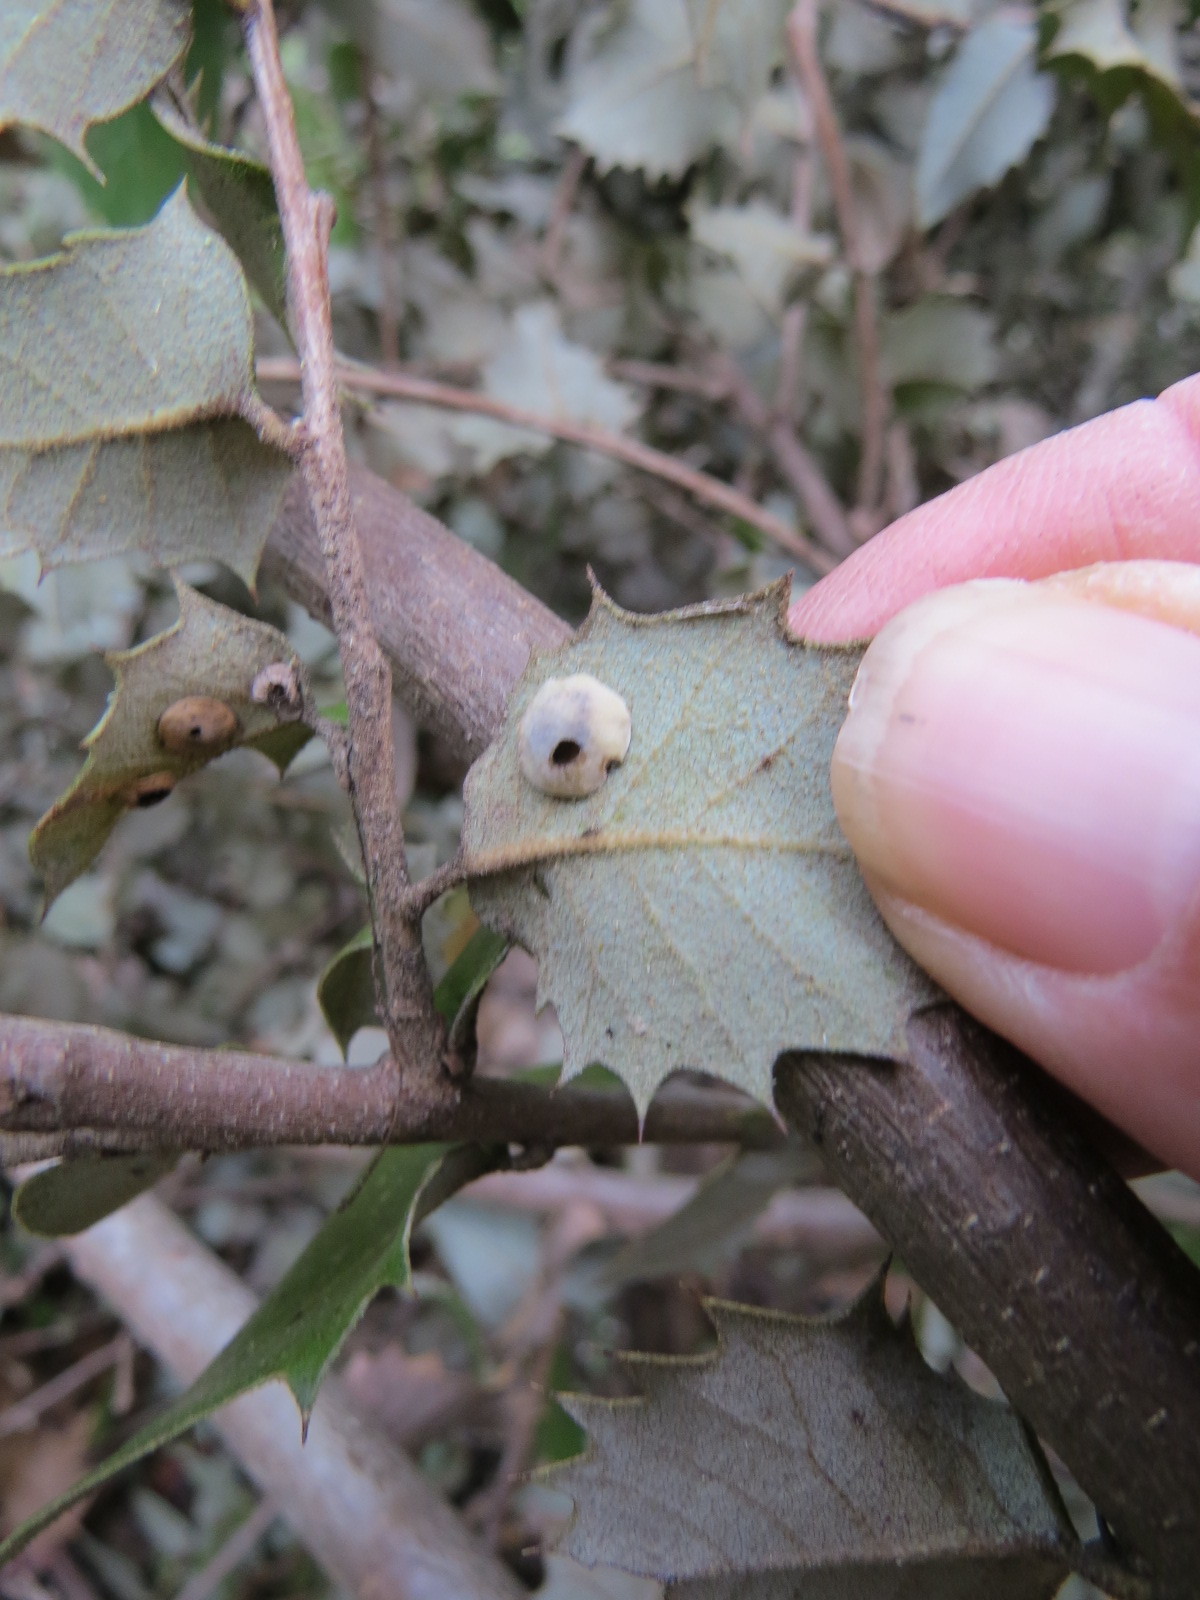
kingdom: Animalia
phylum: Arthropoda
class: Insecta
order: Hymenoptera
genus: Paracraspis
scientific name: Paracraspis
